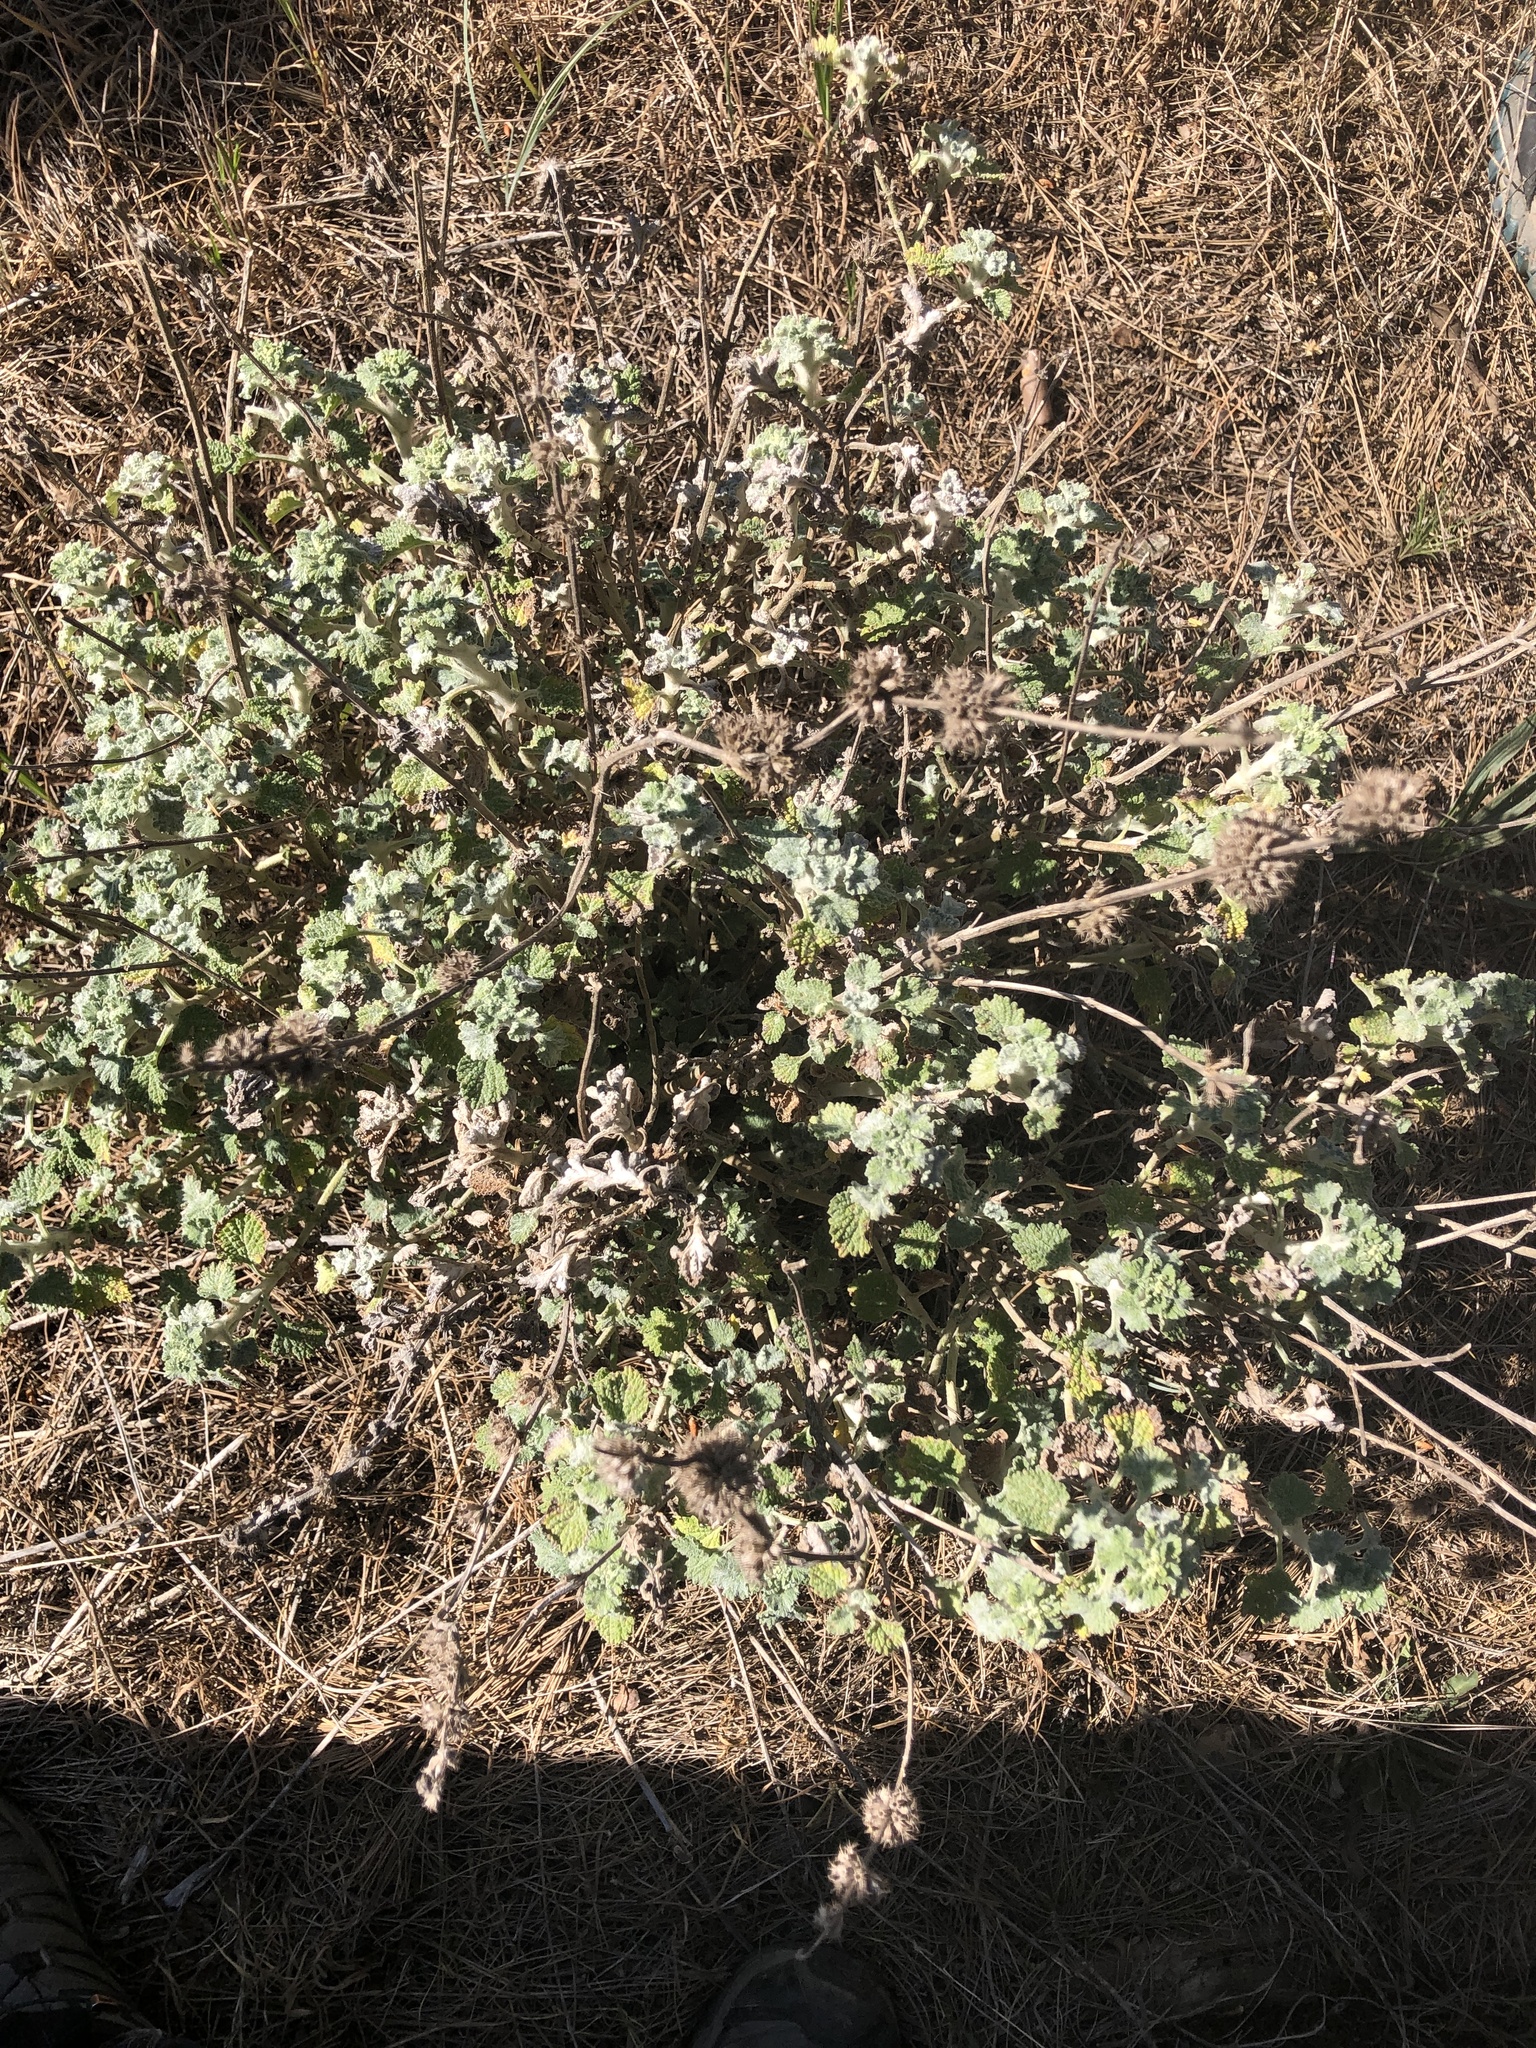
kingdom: Plantae
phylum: Tracheophyta
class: Magnoliopsida
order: Lamiales
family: Lamiaceae
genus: Marrubium
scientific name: Marrubium vulgare
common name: Horehound
